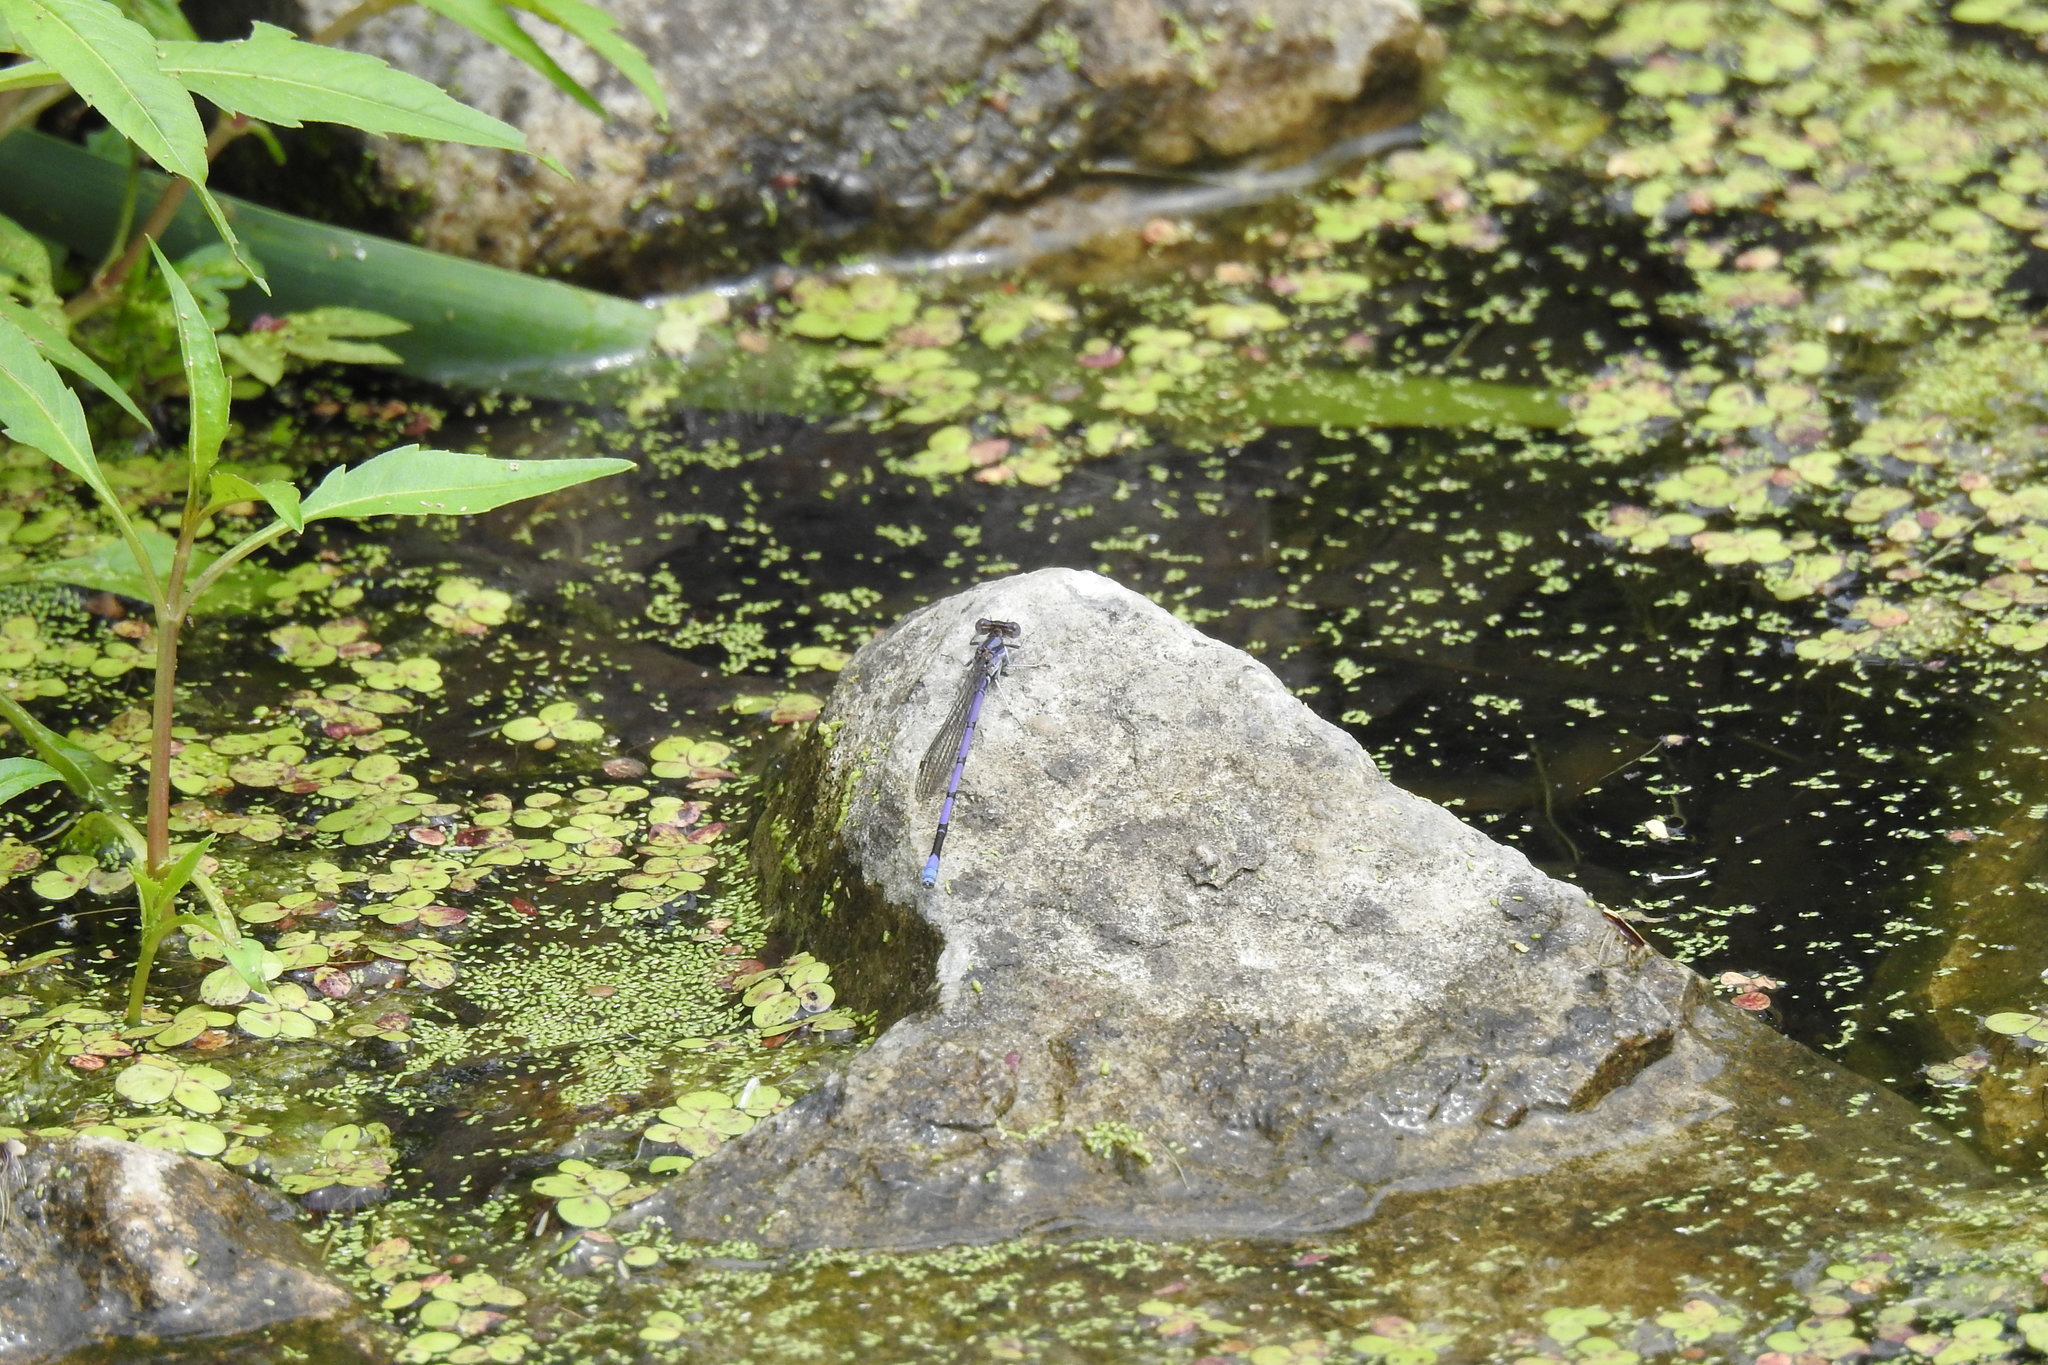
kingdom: Animalia
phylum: Arthropoda
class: Insecta
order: Odonata
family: Coenagrionidae
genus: Argia
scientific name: Argia fumipennis
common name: Variable dancer
